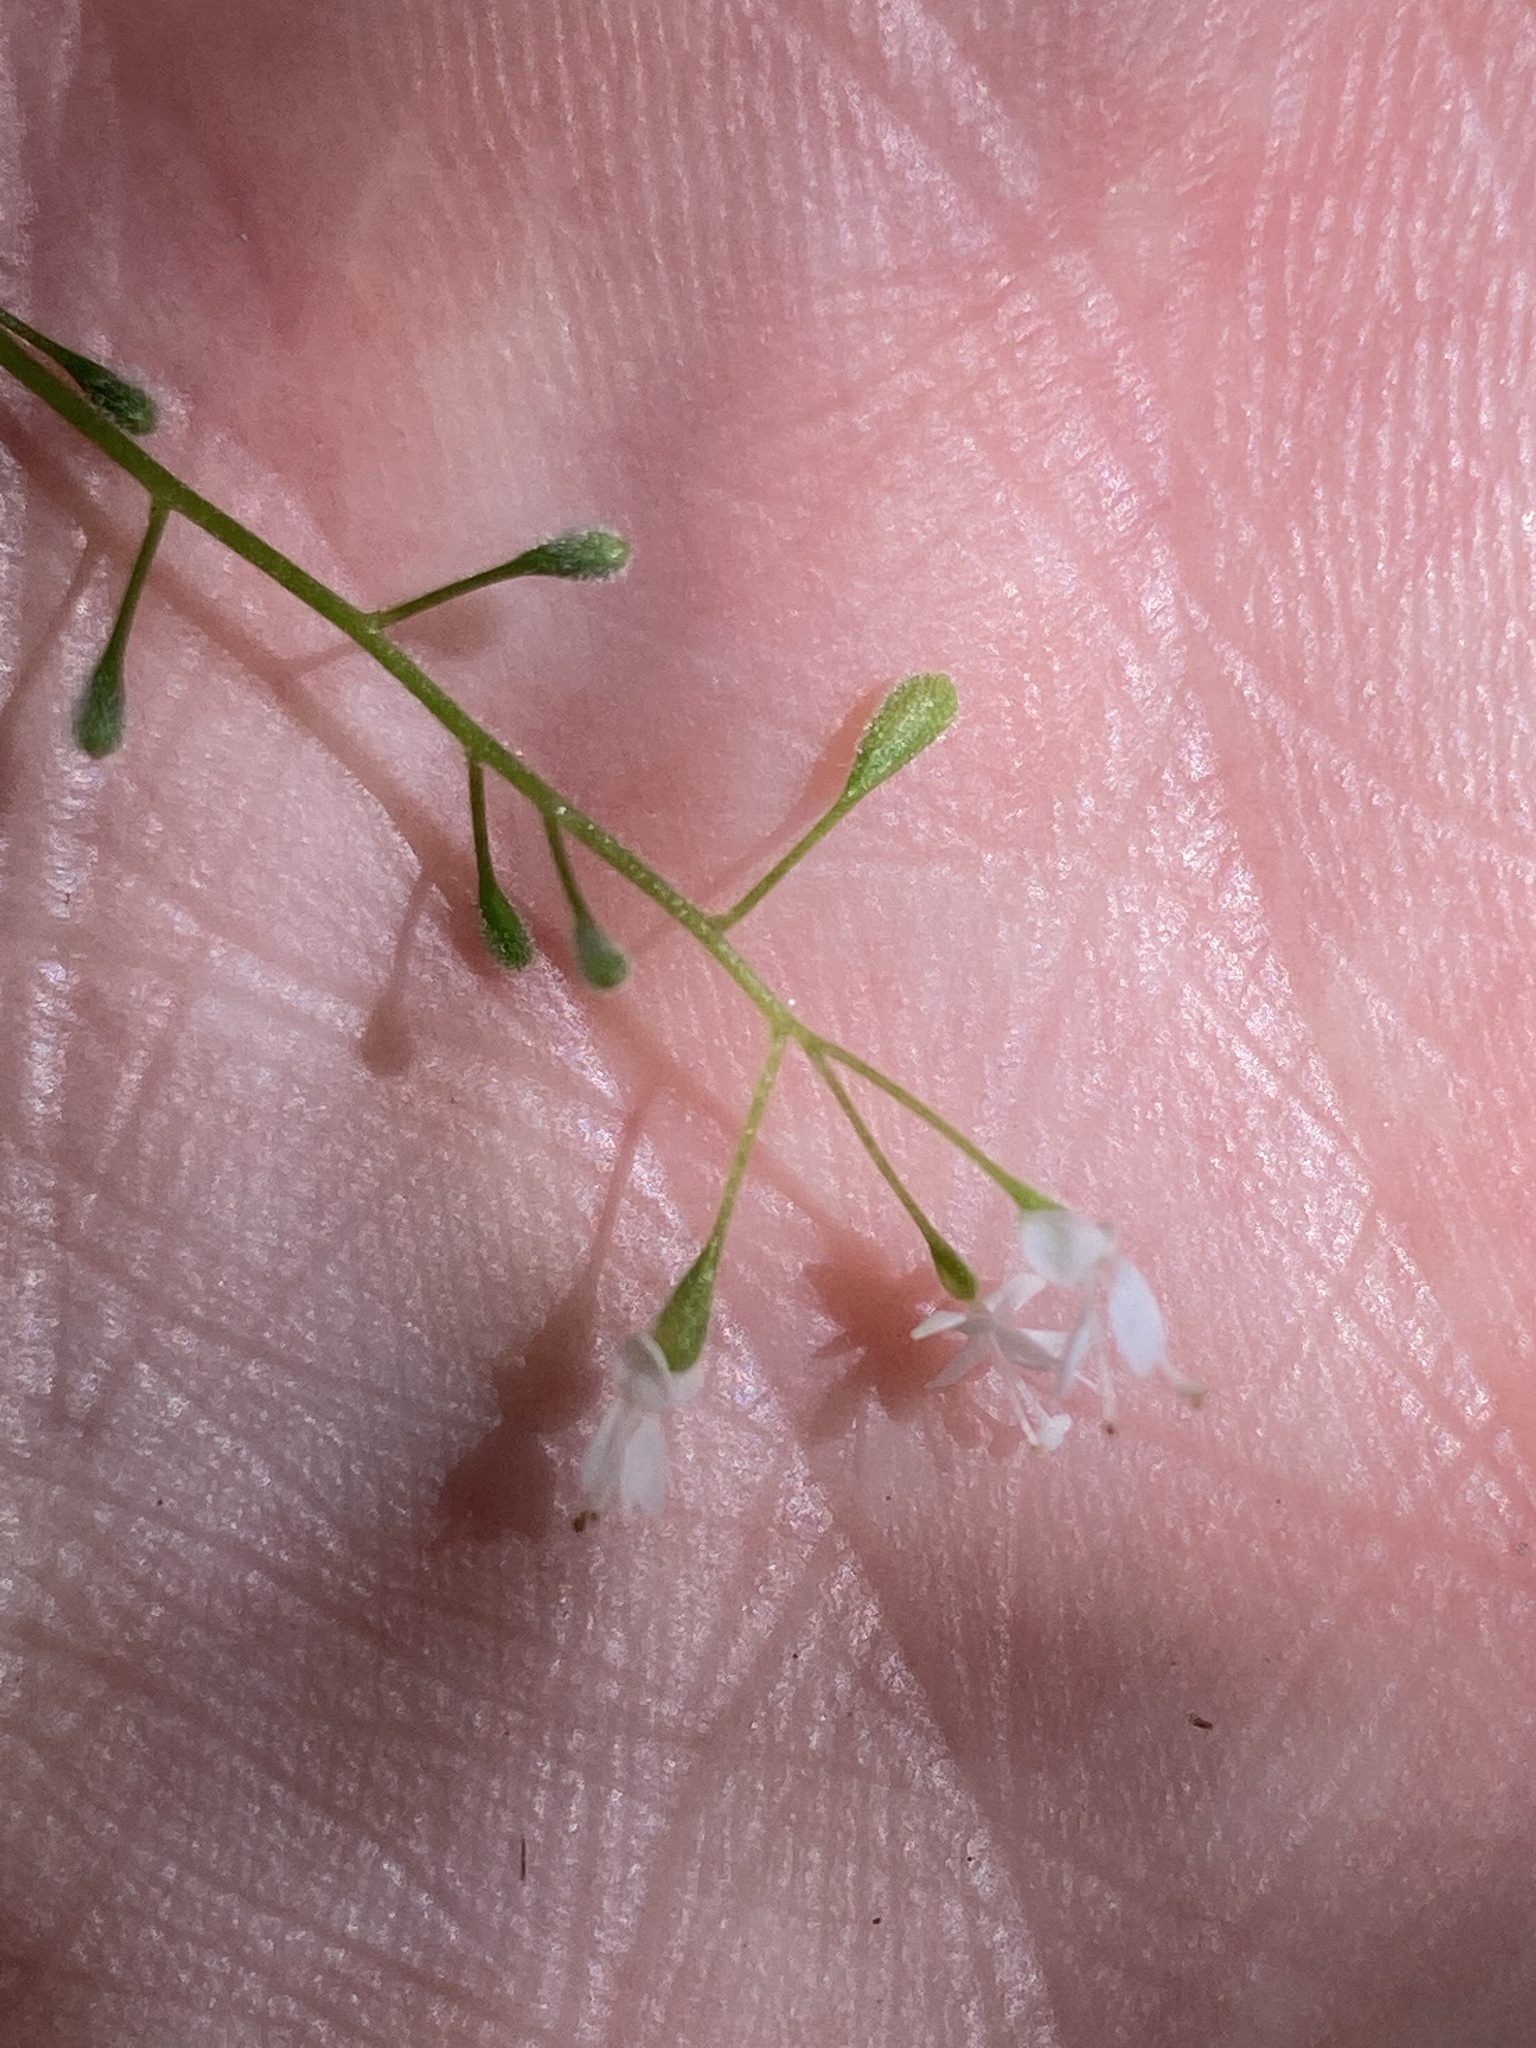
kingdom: Plantae
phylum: Tracheophyta
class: Magnoliopsida
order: Myrtales
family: Onagraceae
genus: Circaea
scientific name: Circaea alpina
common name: Alpine enchanter's-nightshade
